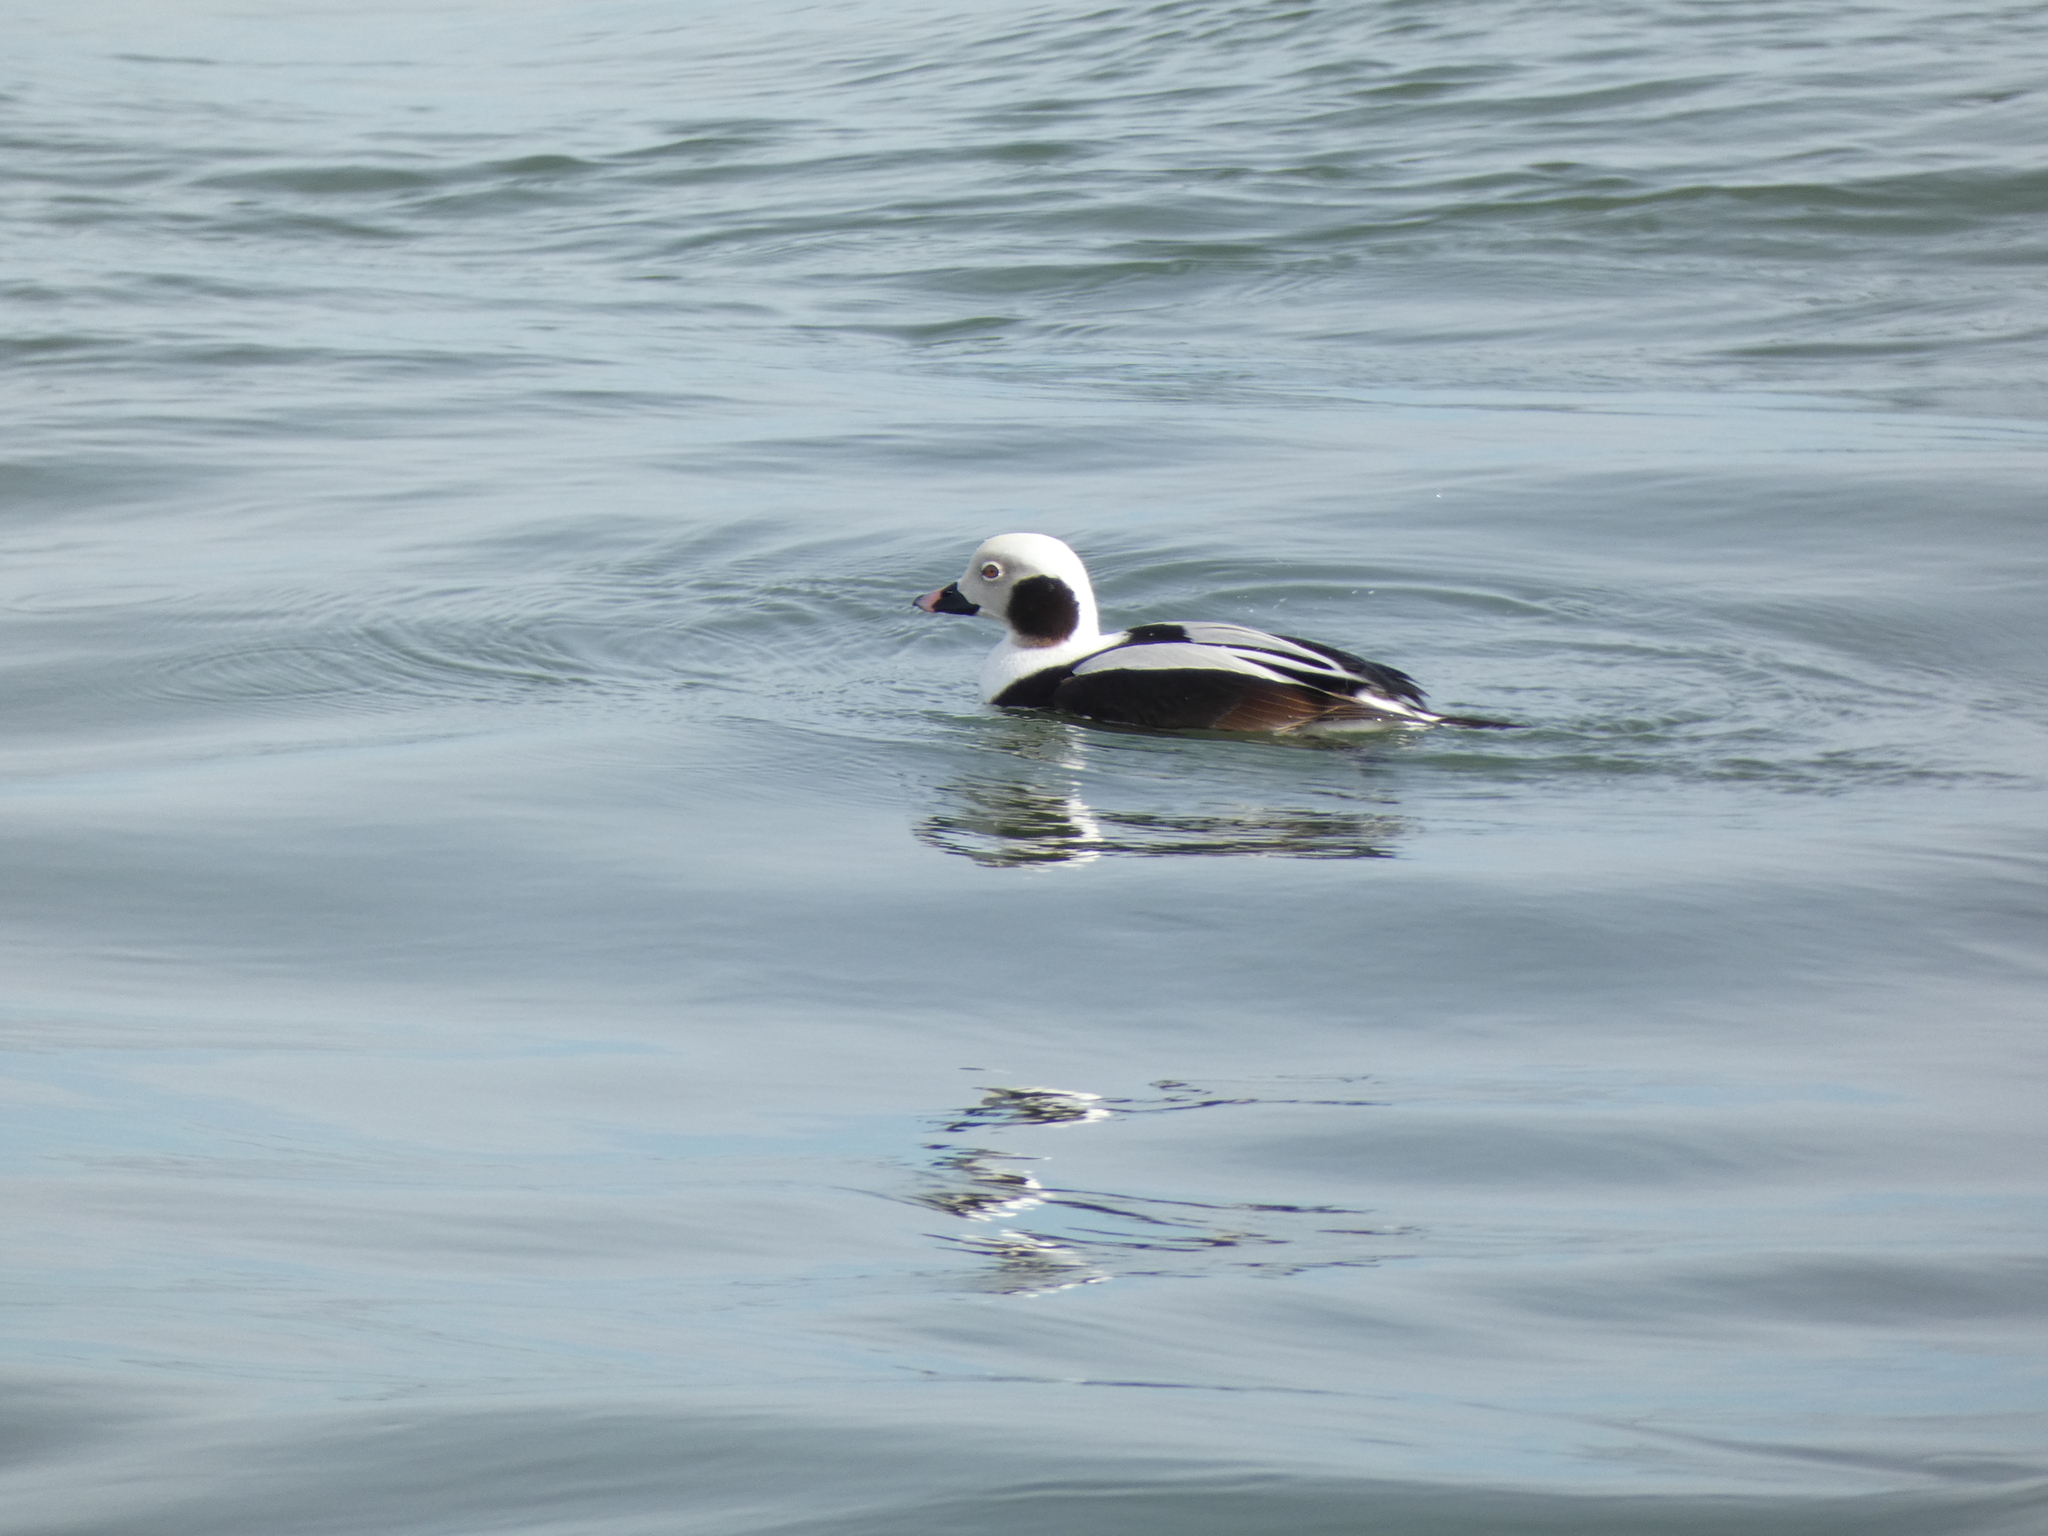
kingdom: Animalia
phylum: Chordata
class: Aves
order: Anseriformes
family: Anatidae
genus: Clangula
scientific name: Clangula hyemalis
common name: Long-tailed duck
